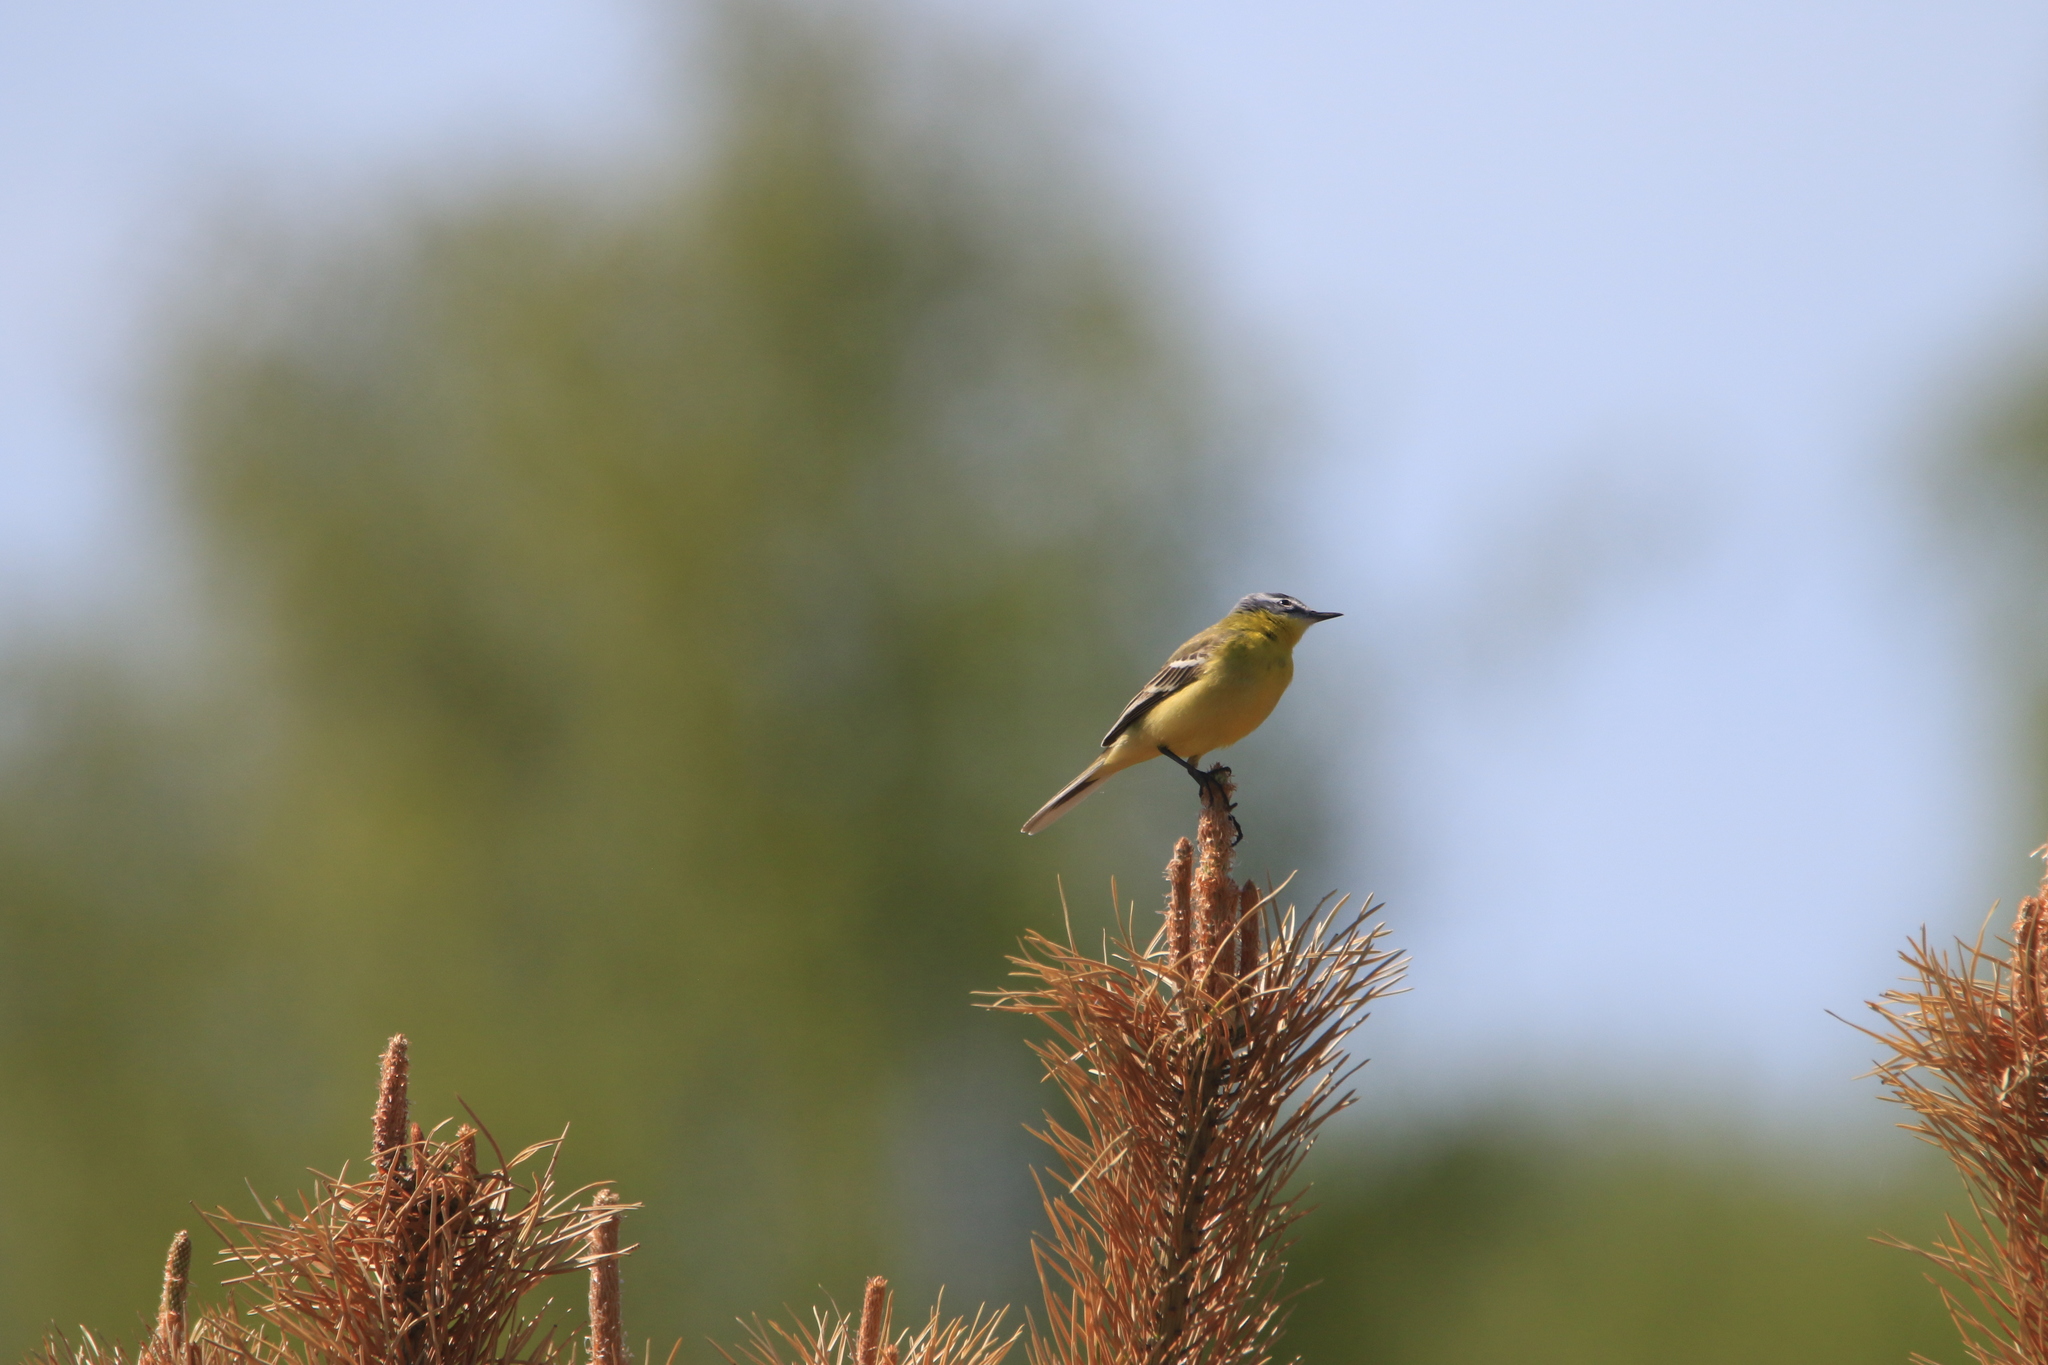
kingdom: Animalia
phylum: Chordata
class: Aves
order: Passeriformes
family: Motacillidae
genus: Motacilla
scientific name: Motacilla flava
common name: Western yellow wagtail
